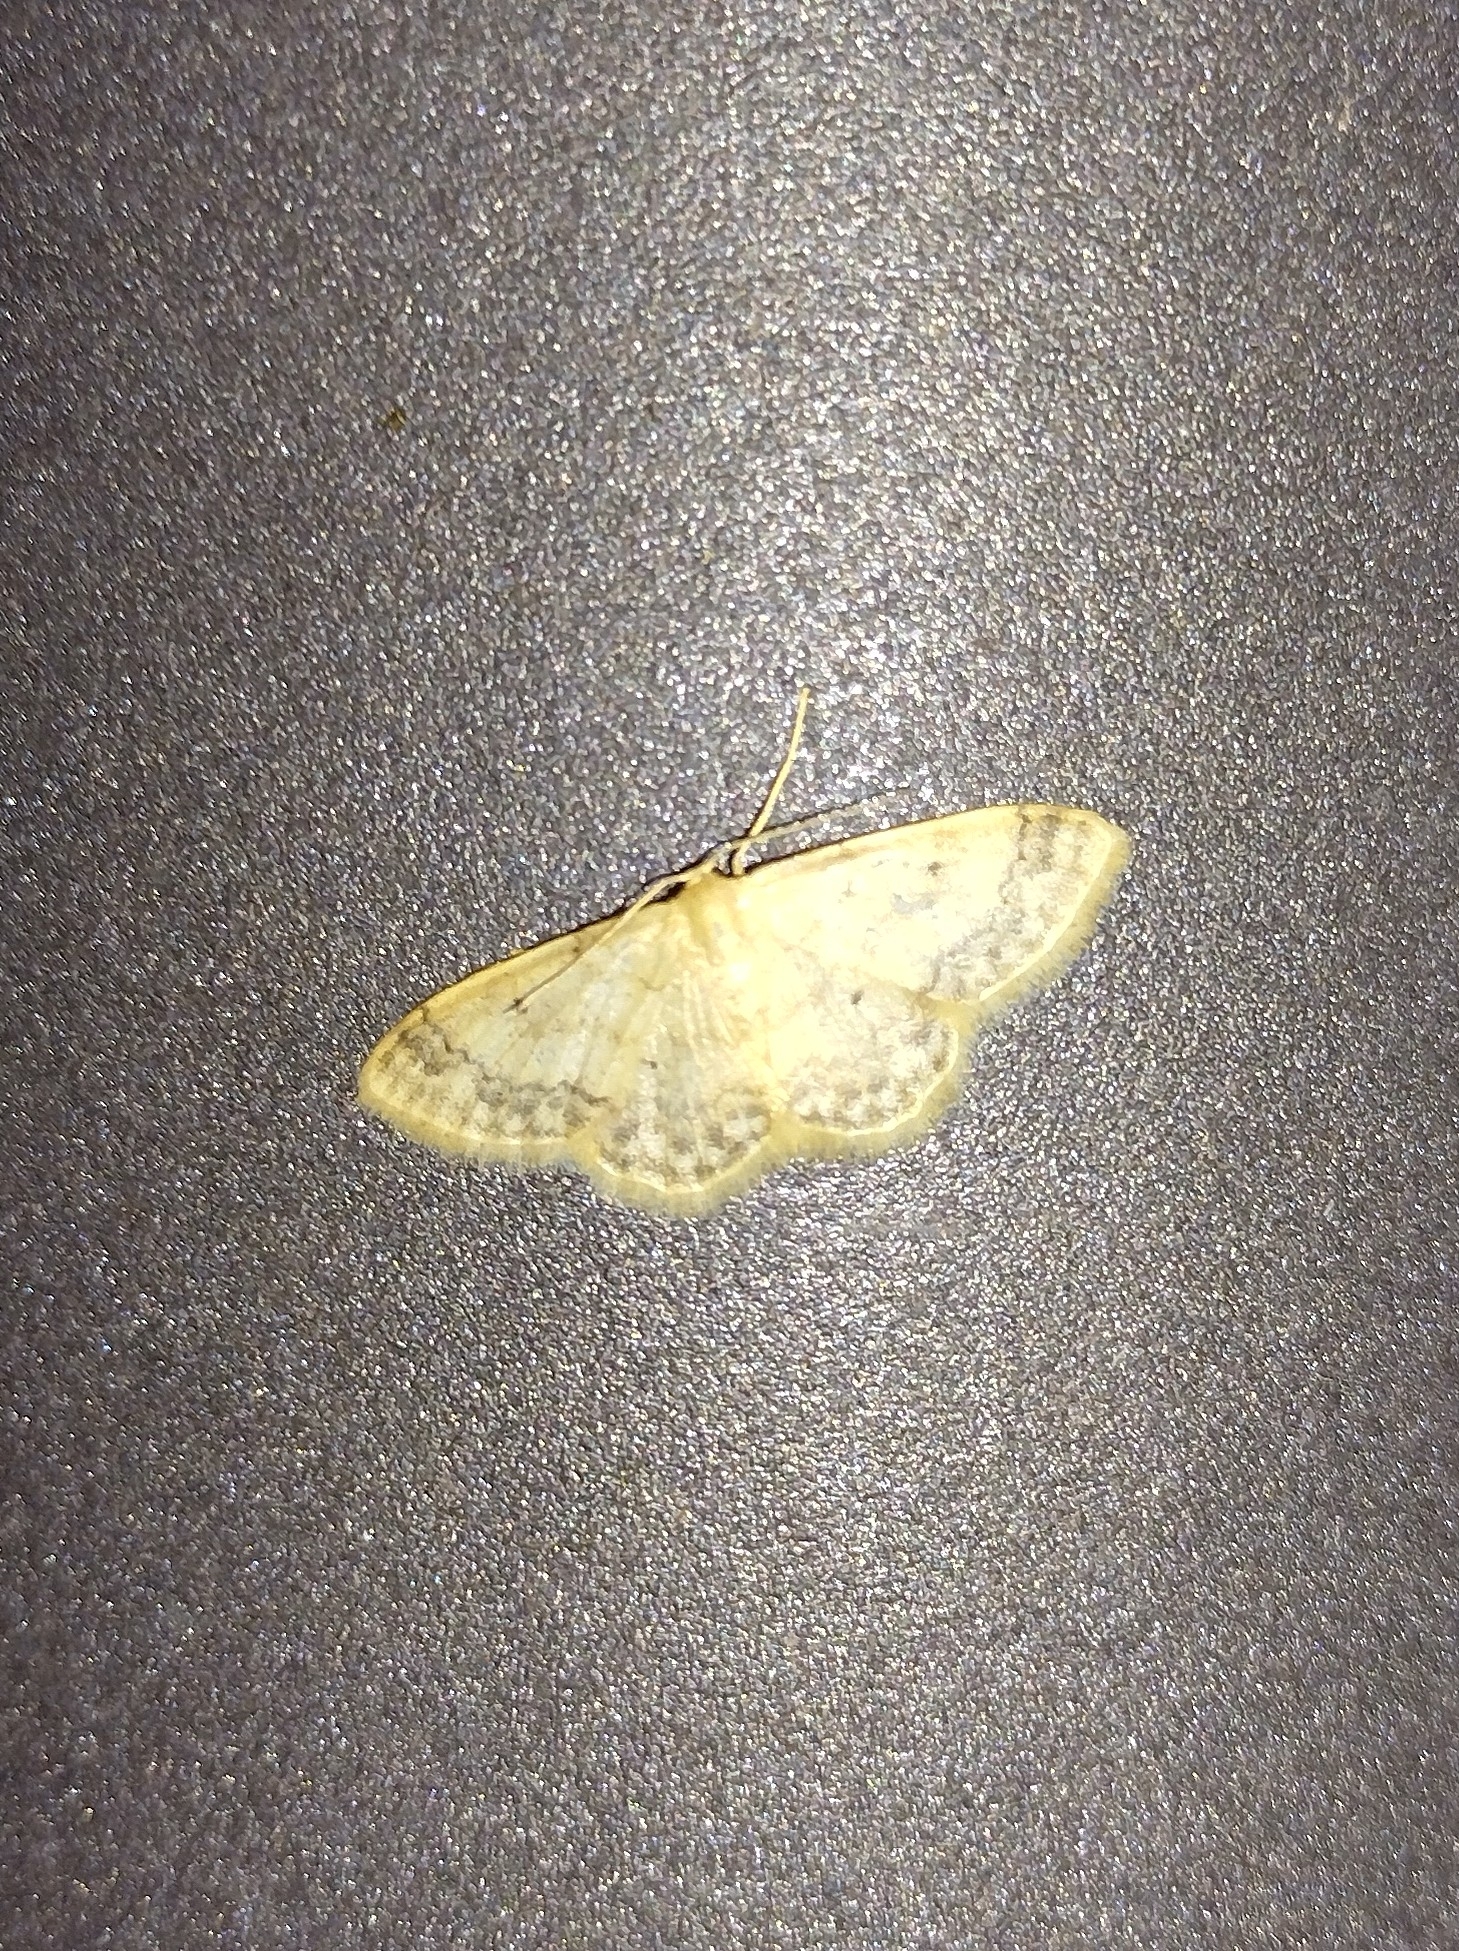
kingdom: Animalia
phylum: Arthropoda
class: Insecta
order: Lepidoptera
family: Geometridae
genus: Idaea
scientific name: Idaea biselata
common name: Small fan-footed wave
